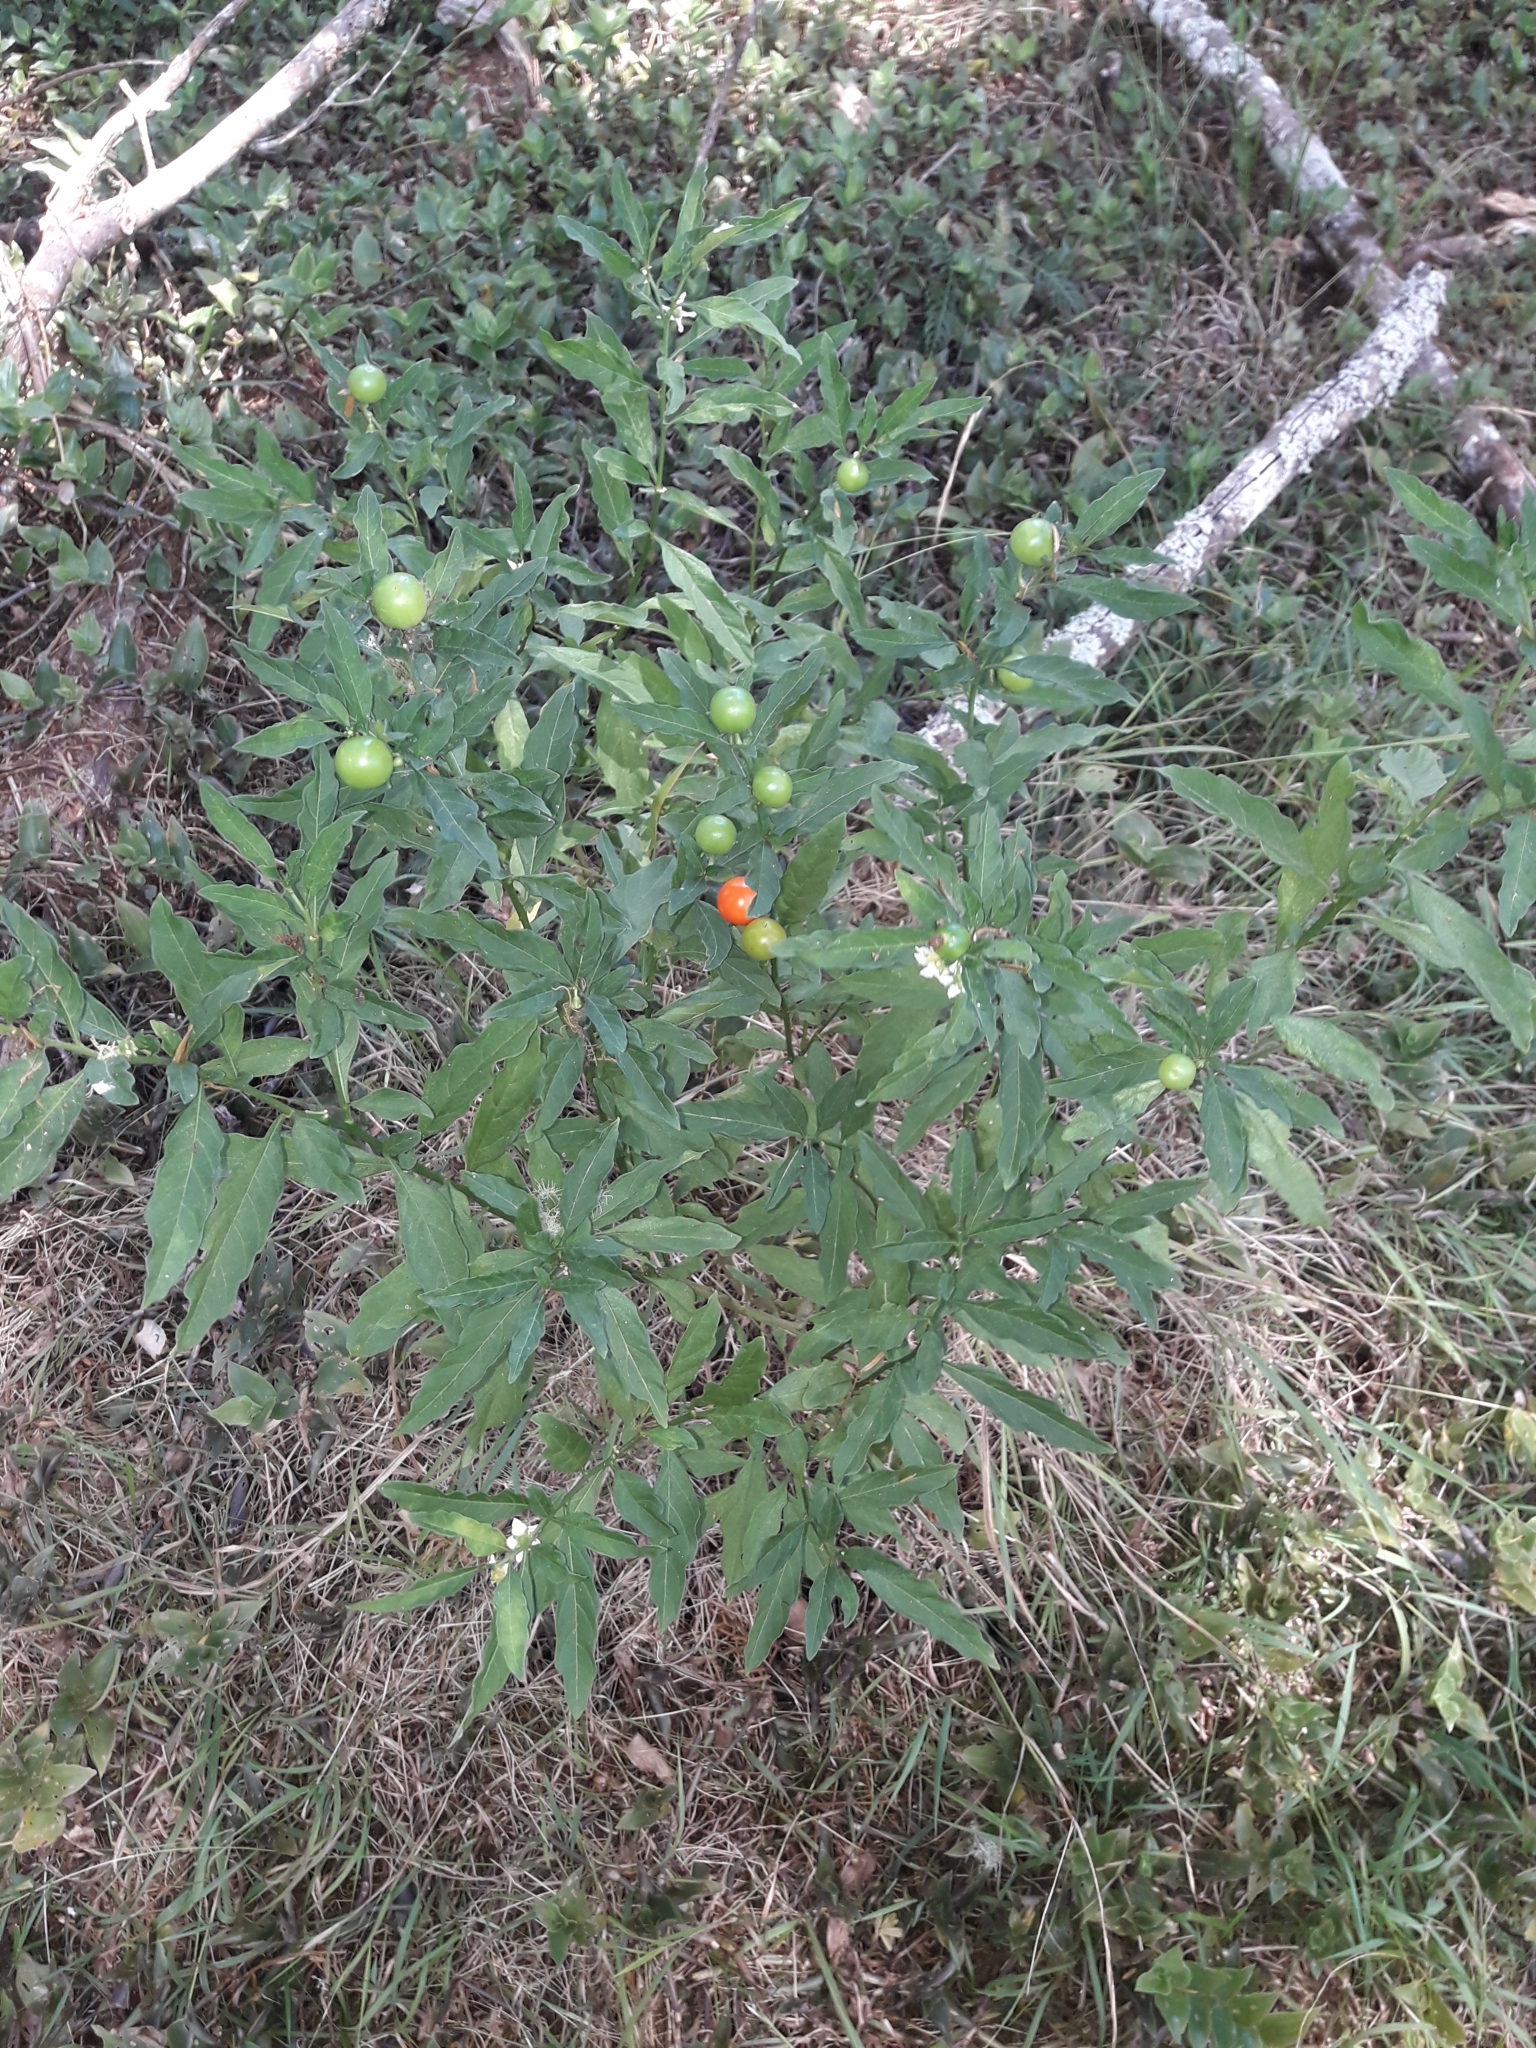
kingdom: Plantae
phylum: Tracheophyta
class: Magnoliopsida
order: Solanales
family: Solanaceae
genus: Solanum
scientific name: Solanum pseudocapsicum
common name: Jerusalem cherry
